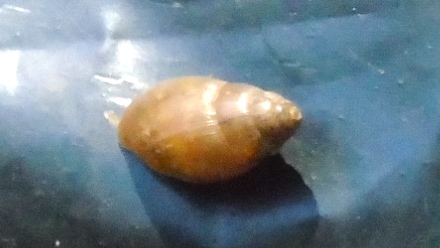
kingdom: Animalia
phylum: Mollusca
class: Gastropoda
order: Stylommatophora
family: Spiraxidae
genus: Euglandina
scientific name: Euglandina
